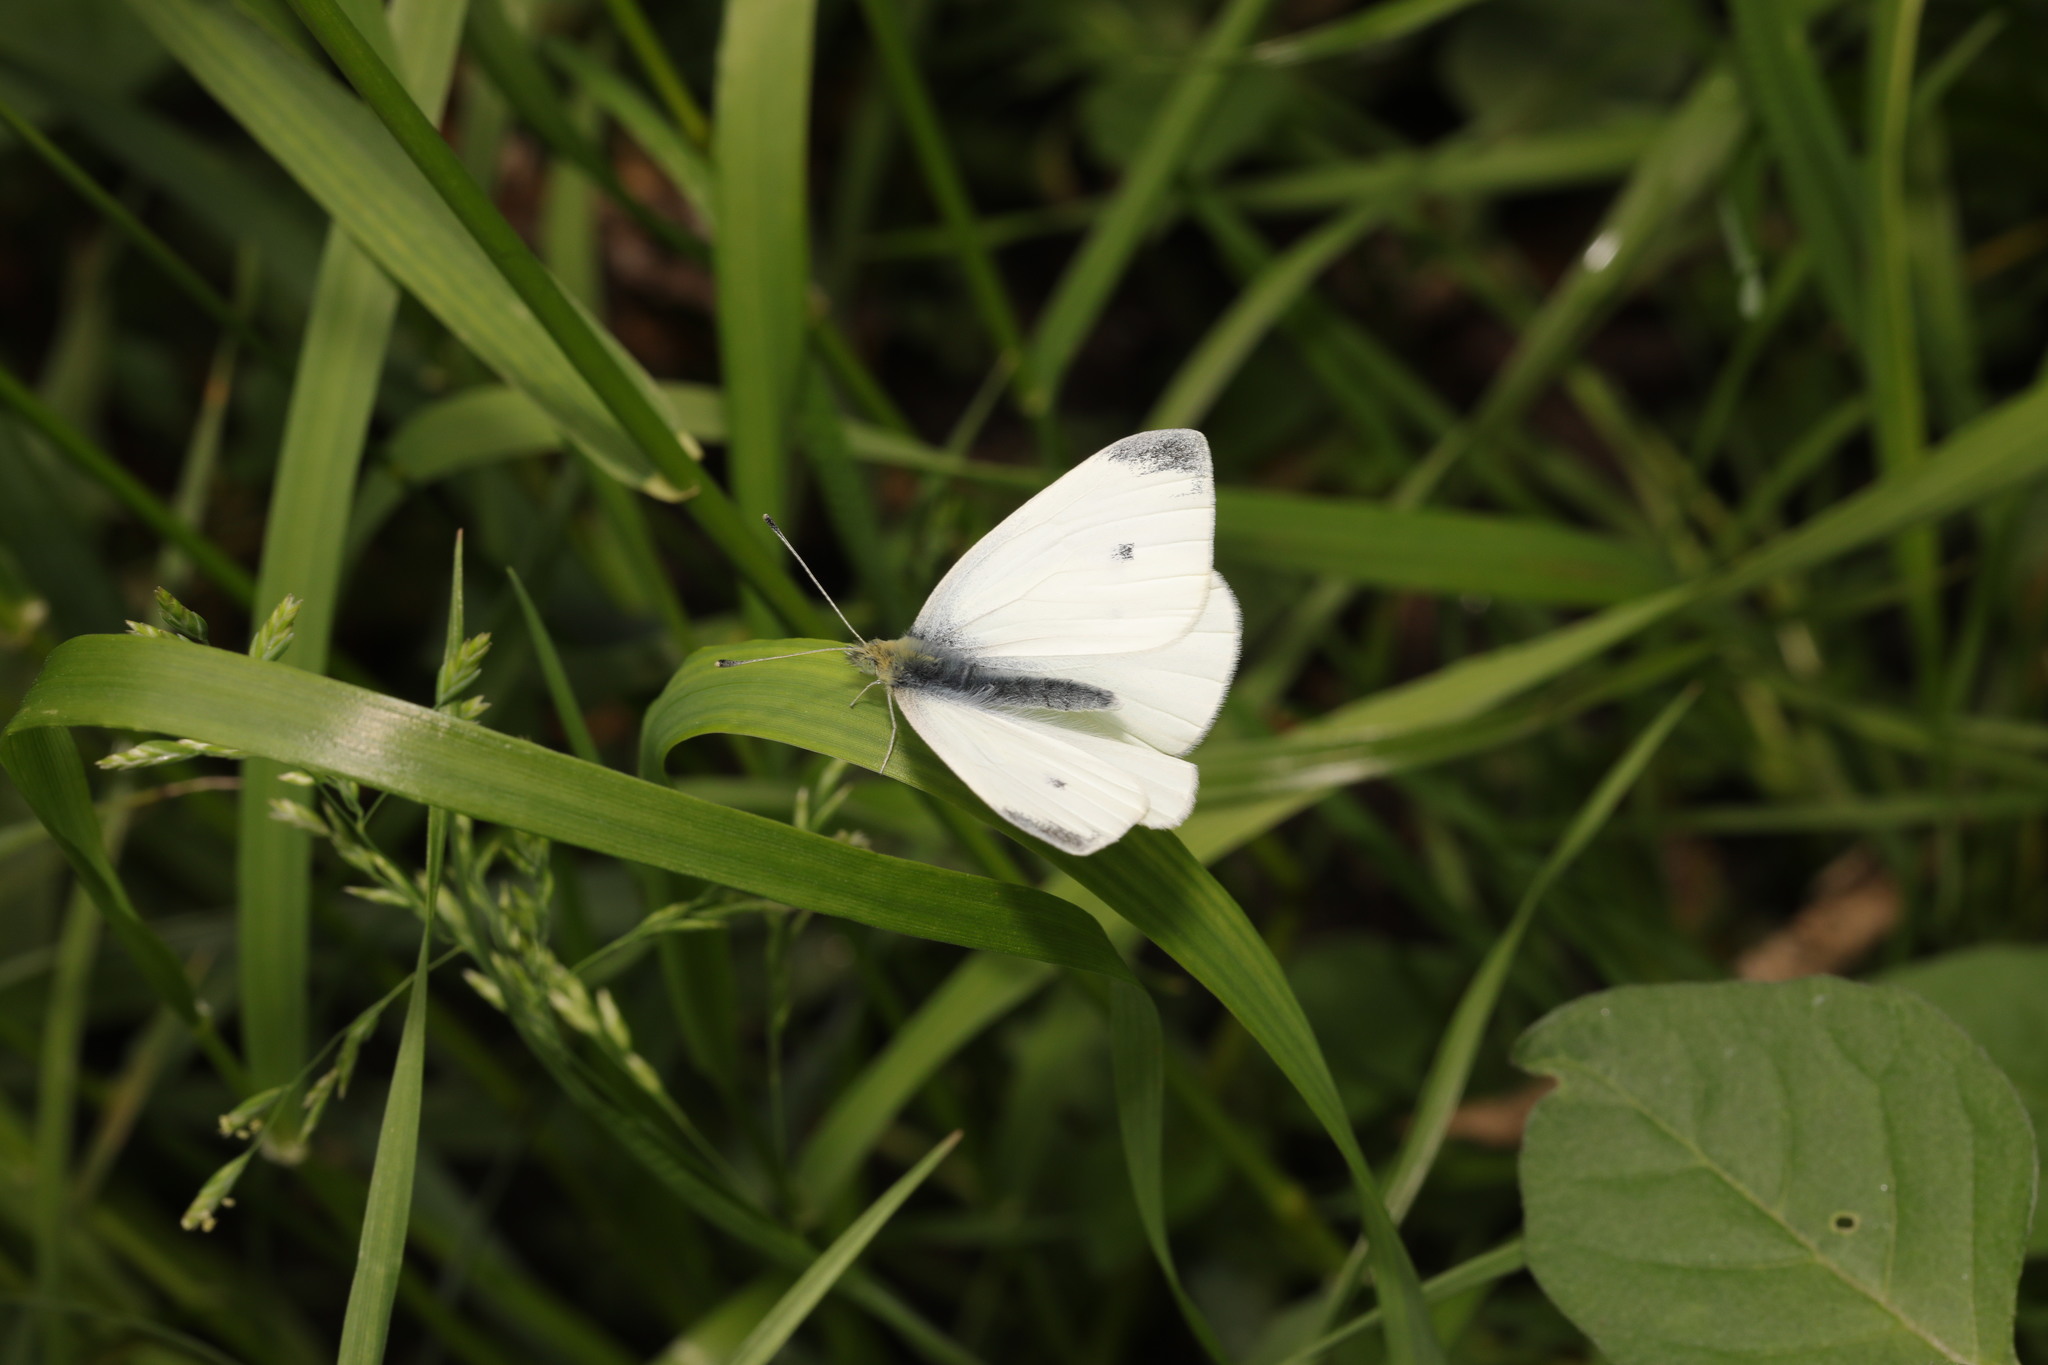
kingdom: Animalia
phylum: Arthropoda
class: Insecta
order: Lepidoptera
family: Pieridae
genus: Pieris
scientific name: Pieris rapae
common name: Small white
